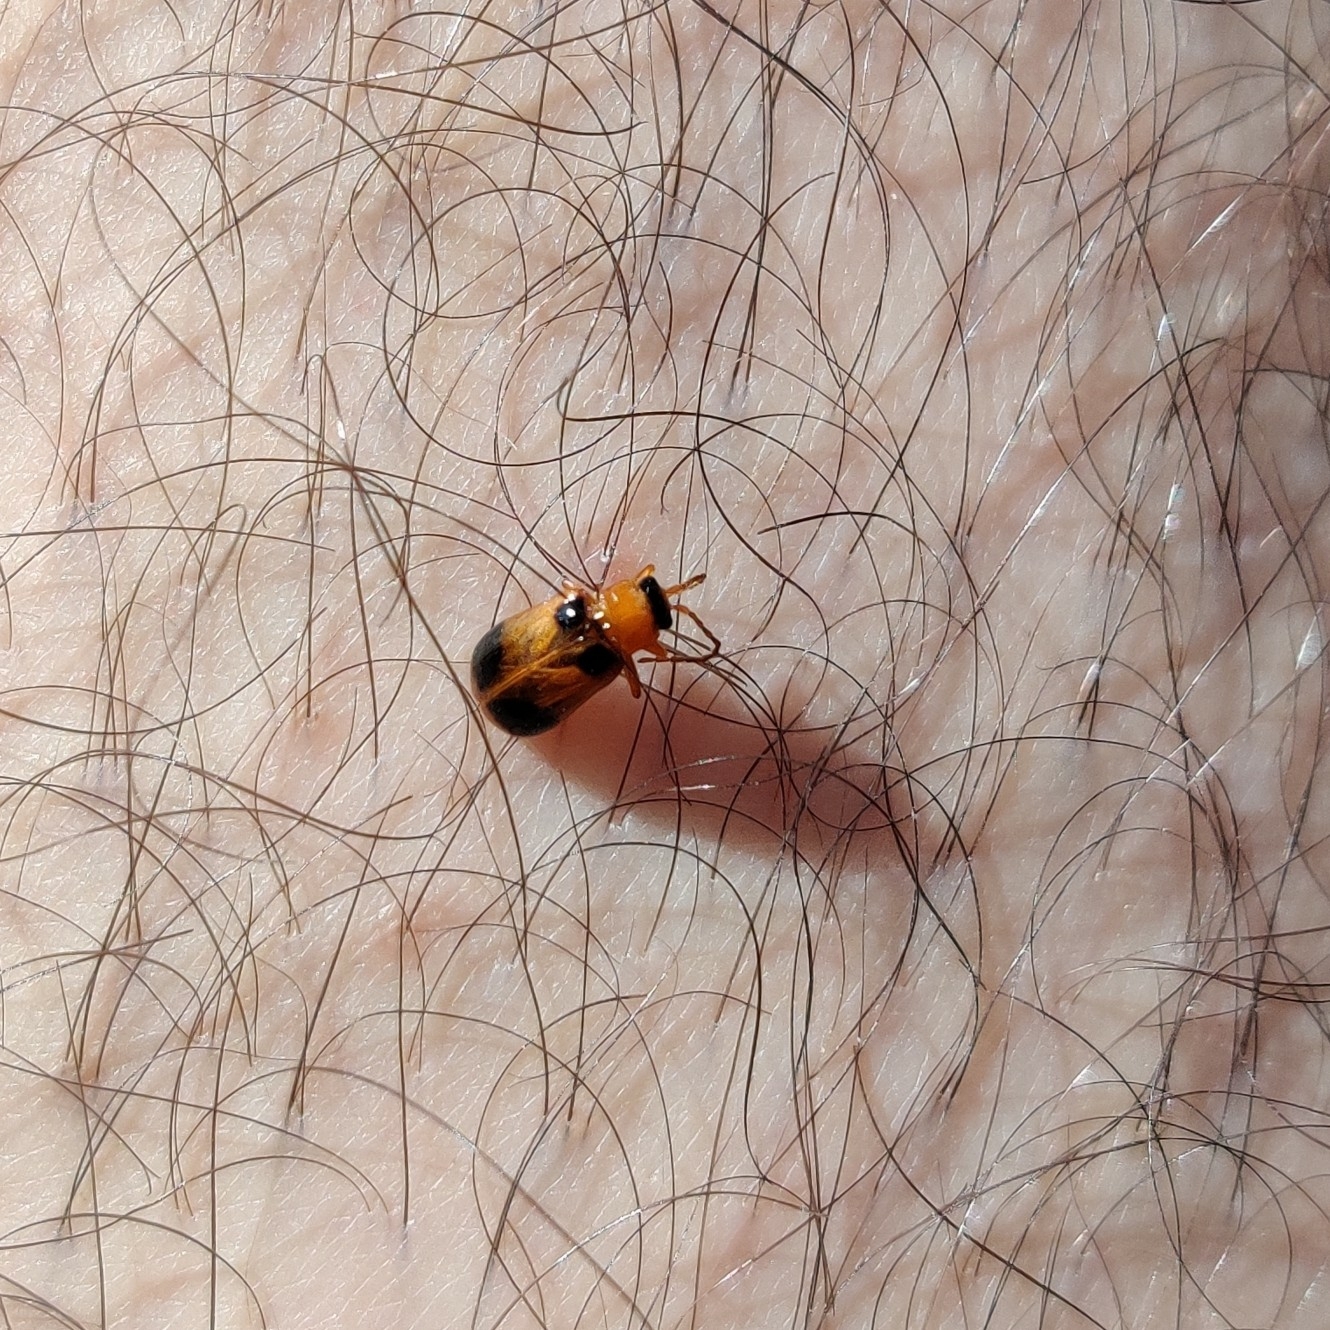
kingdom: Animalia
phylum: Arthropoda
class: Insecta
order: Coleoptera
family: Chrysomelidae
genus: Phyllobrotica
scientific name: Phyllobrotica quadrimaculata
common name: Skullcap leaf beetle
